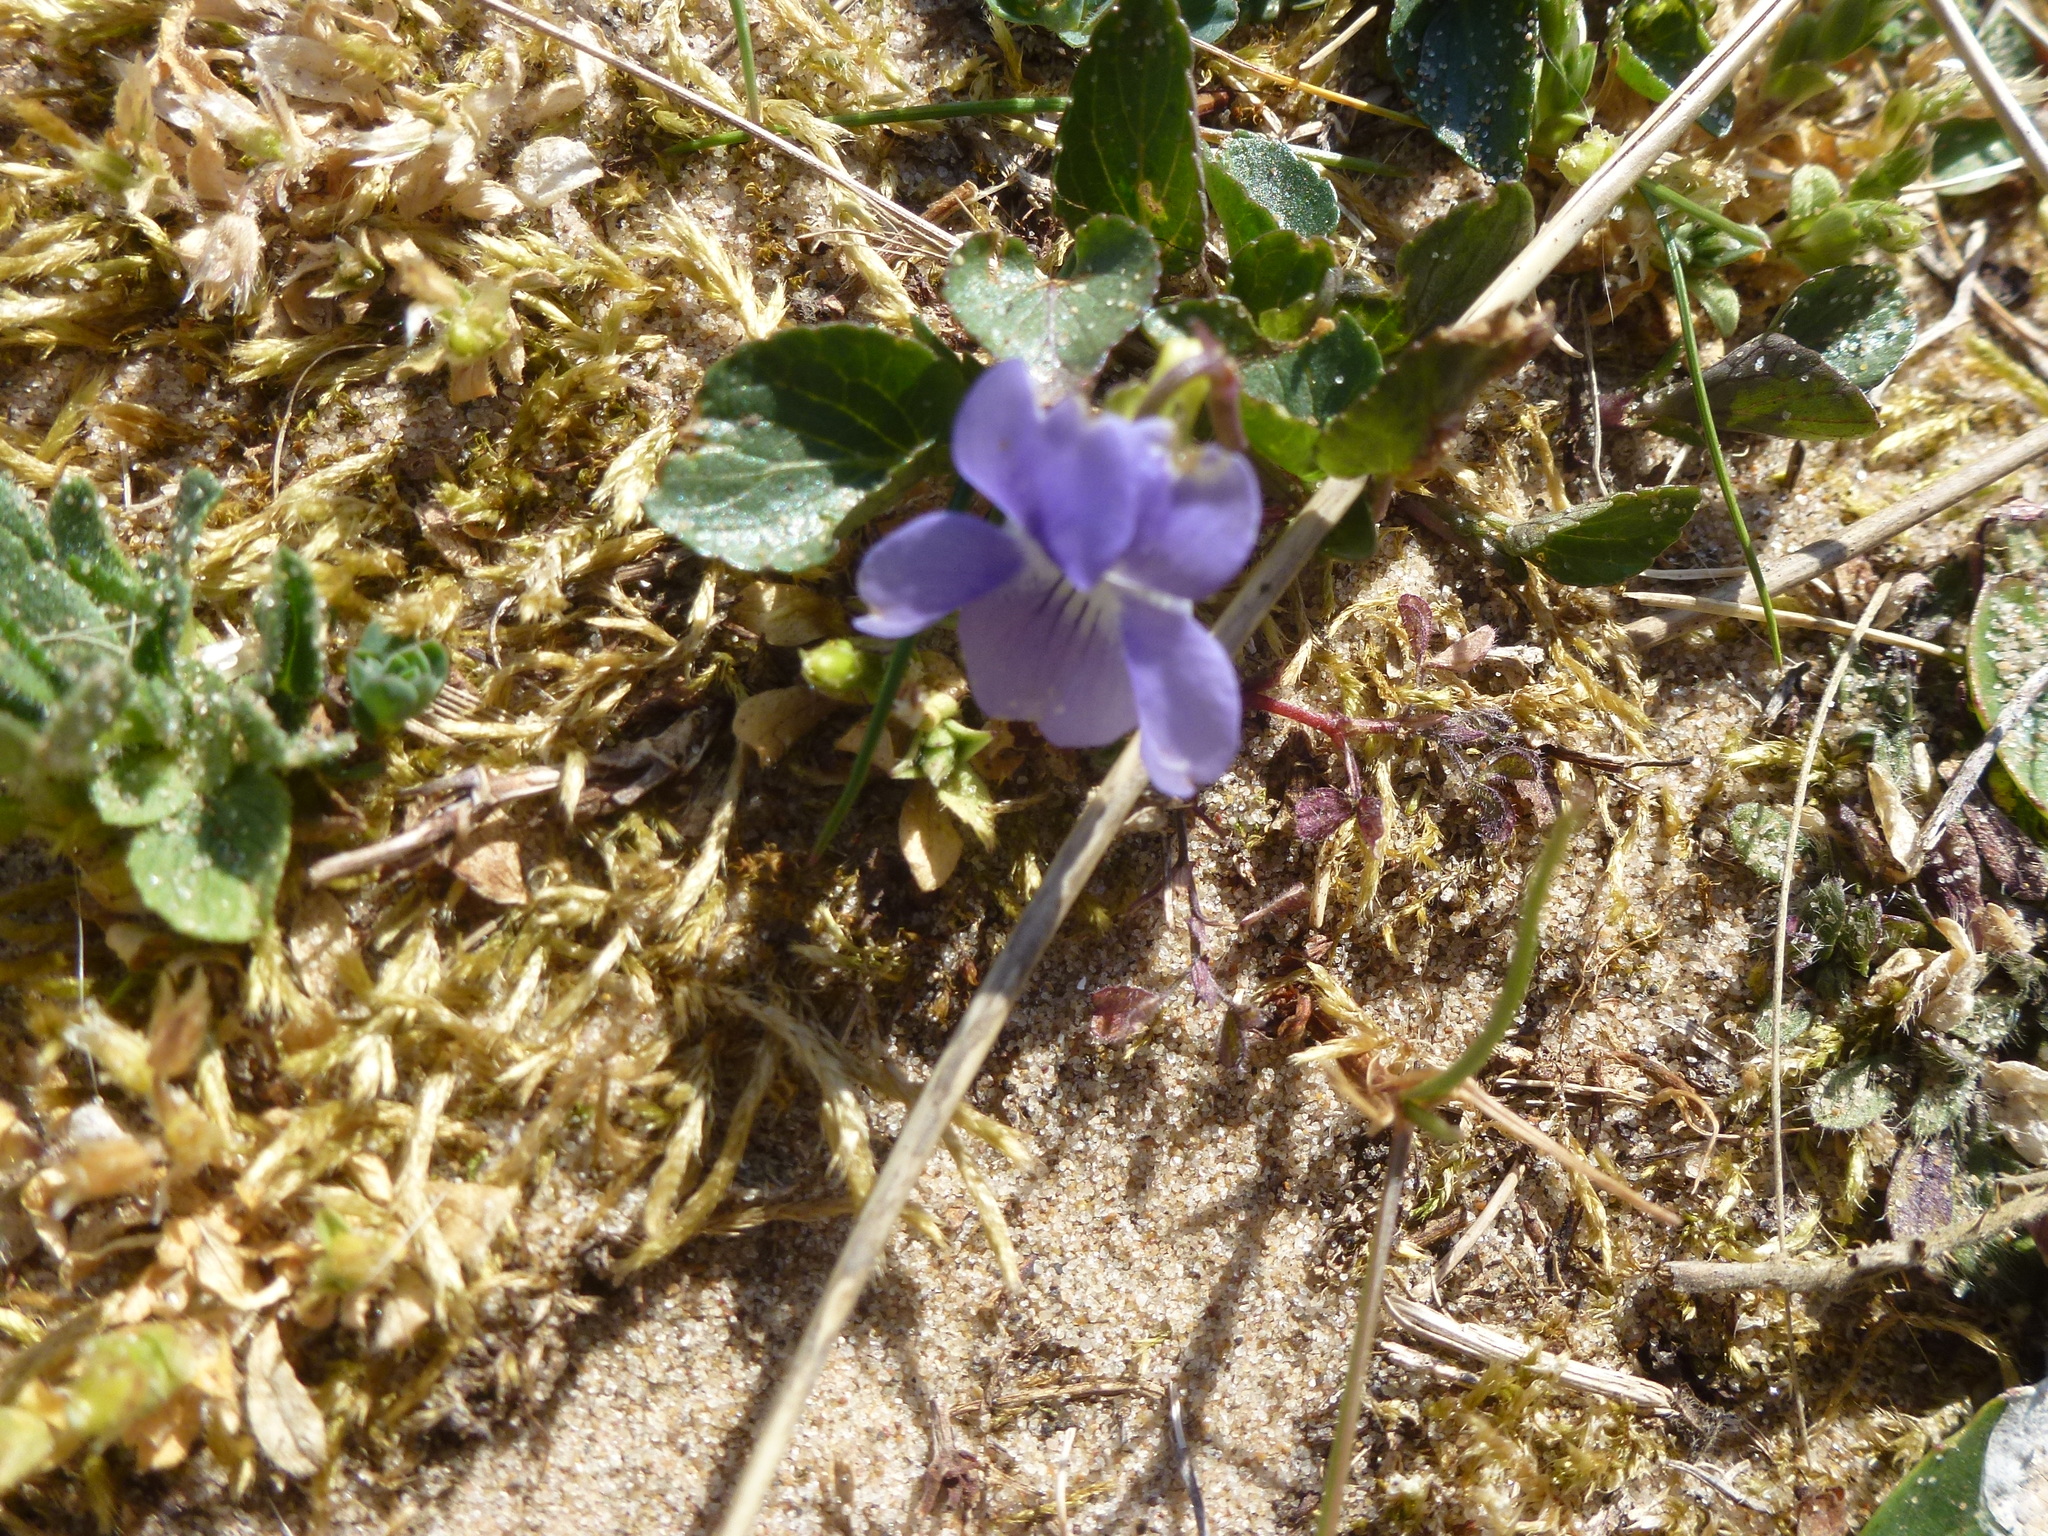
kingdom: Plantae
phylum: Tracheophyta
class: Magnoliopsida
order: Malpighiales
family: Violaceae
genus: Viola
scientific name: Viola canina
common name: Heath dog-violet
